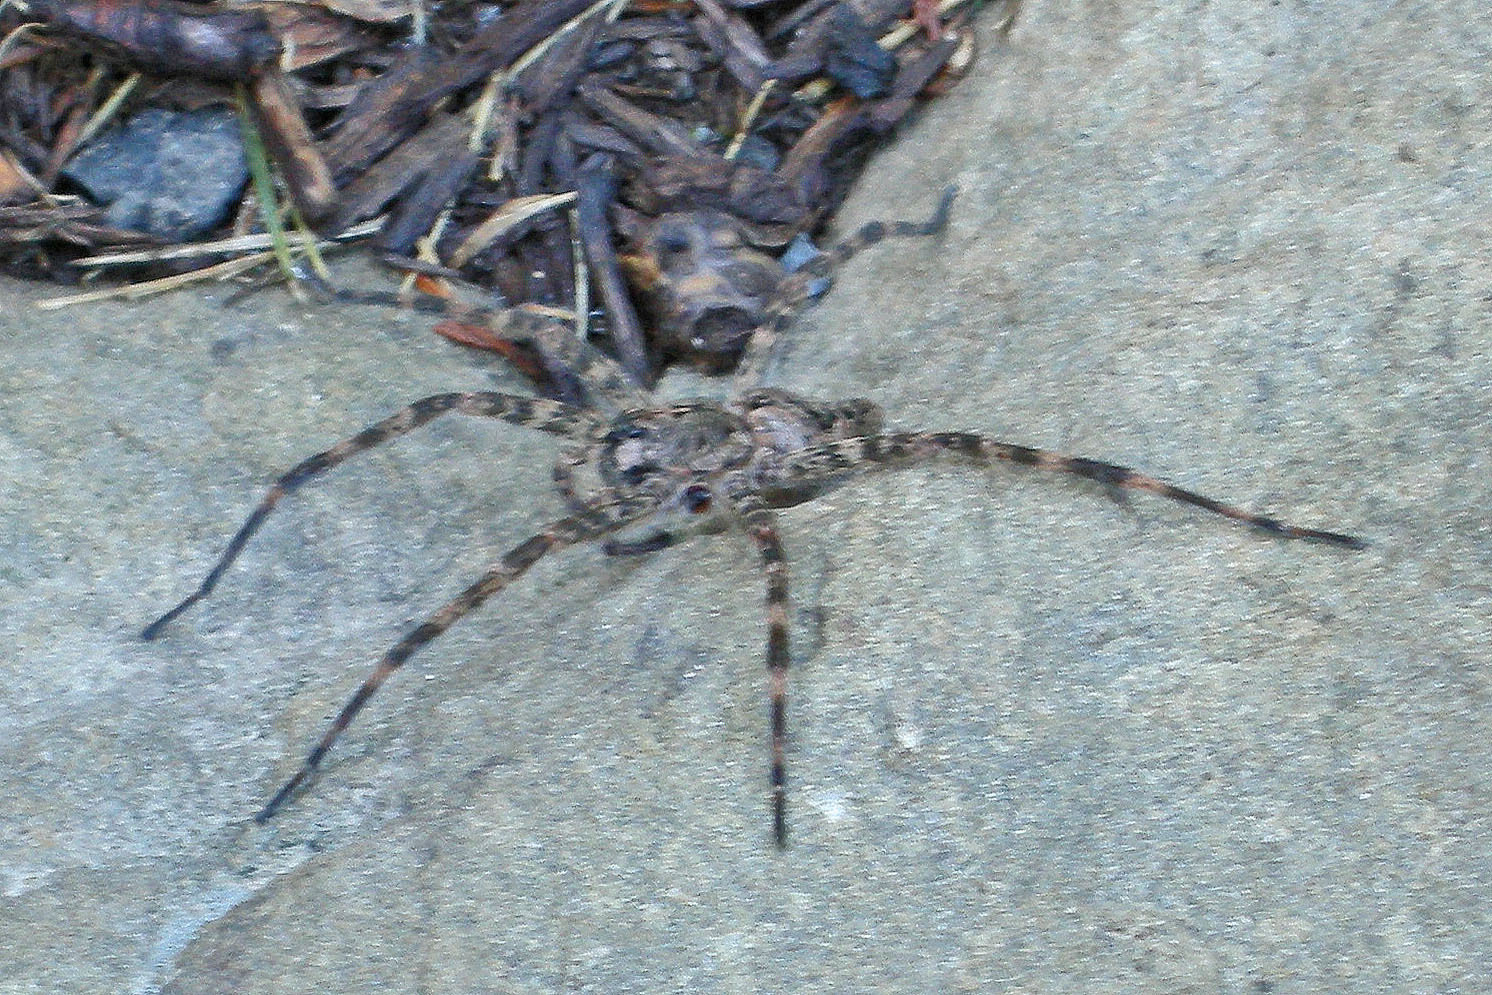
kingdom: Animalia
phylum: Arthropoda
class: Arachnida
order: Araneae
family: Pisauridae
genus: Dolomedes
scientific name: Dolomedes tenebrosus
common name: Dark fishing spider
